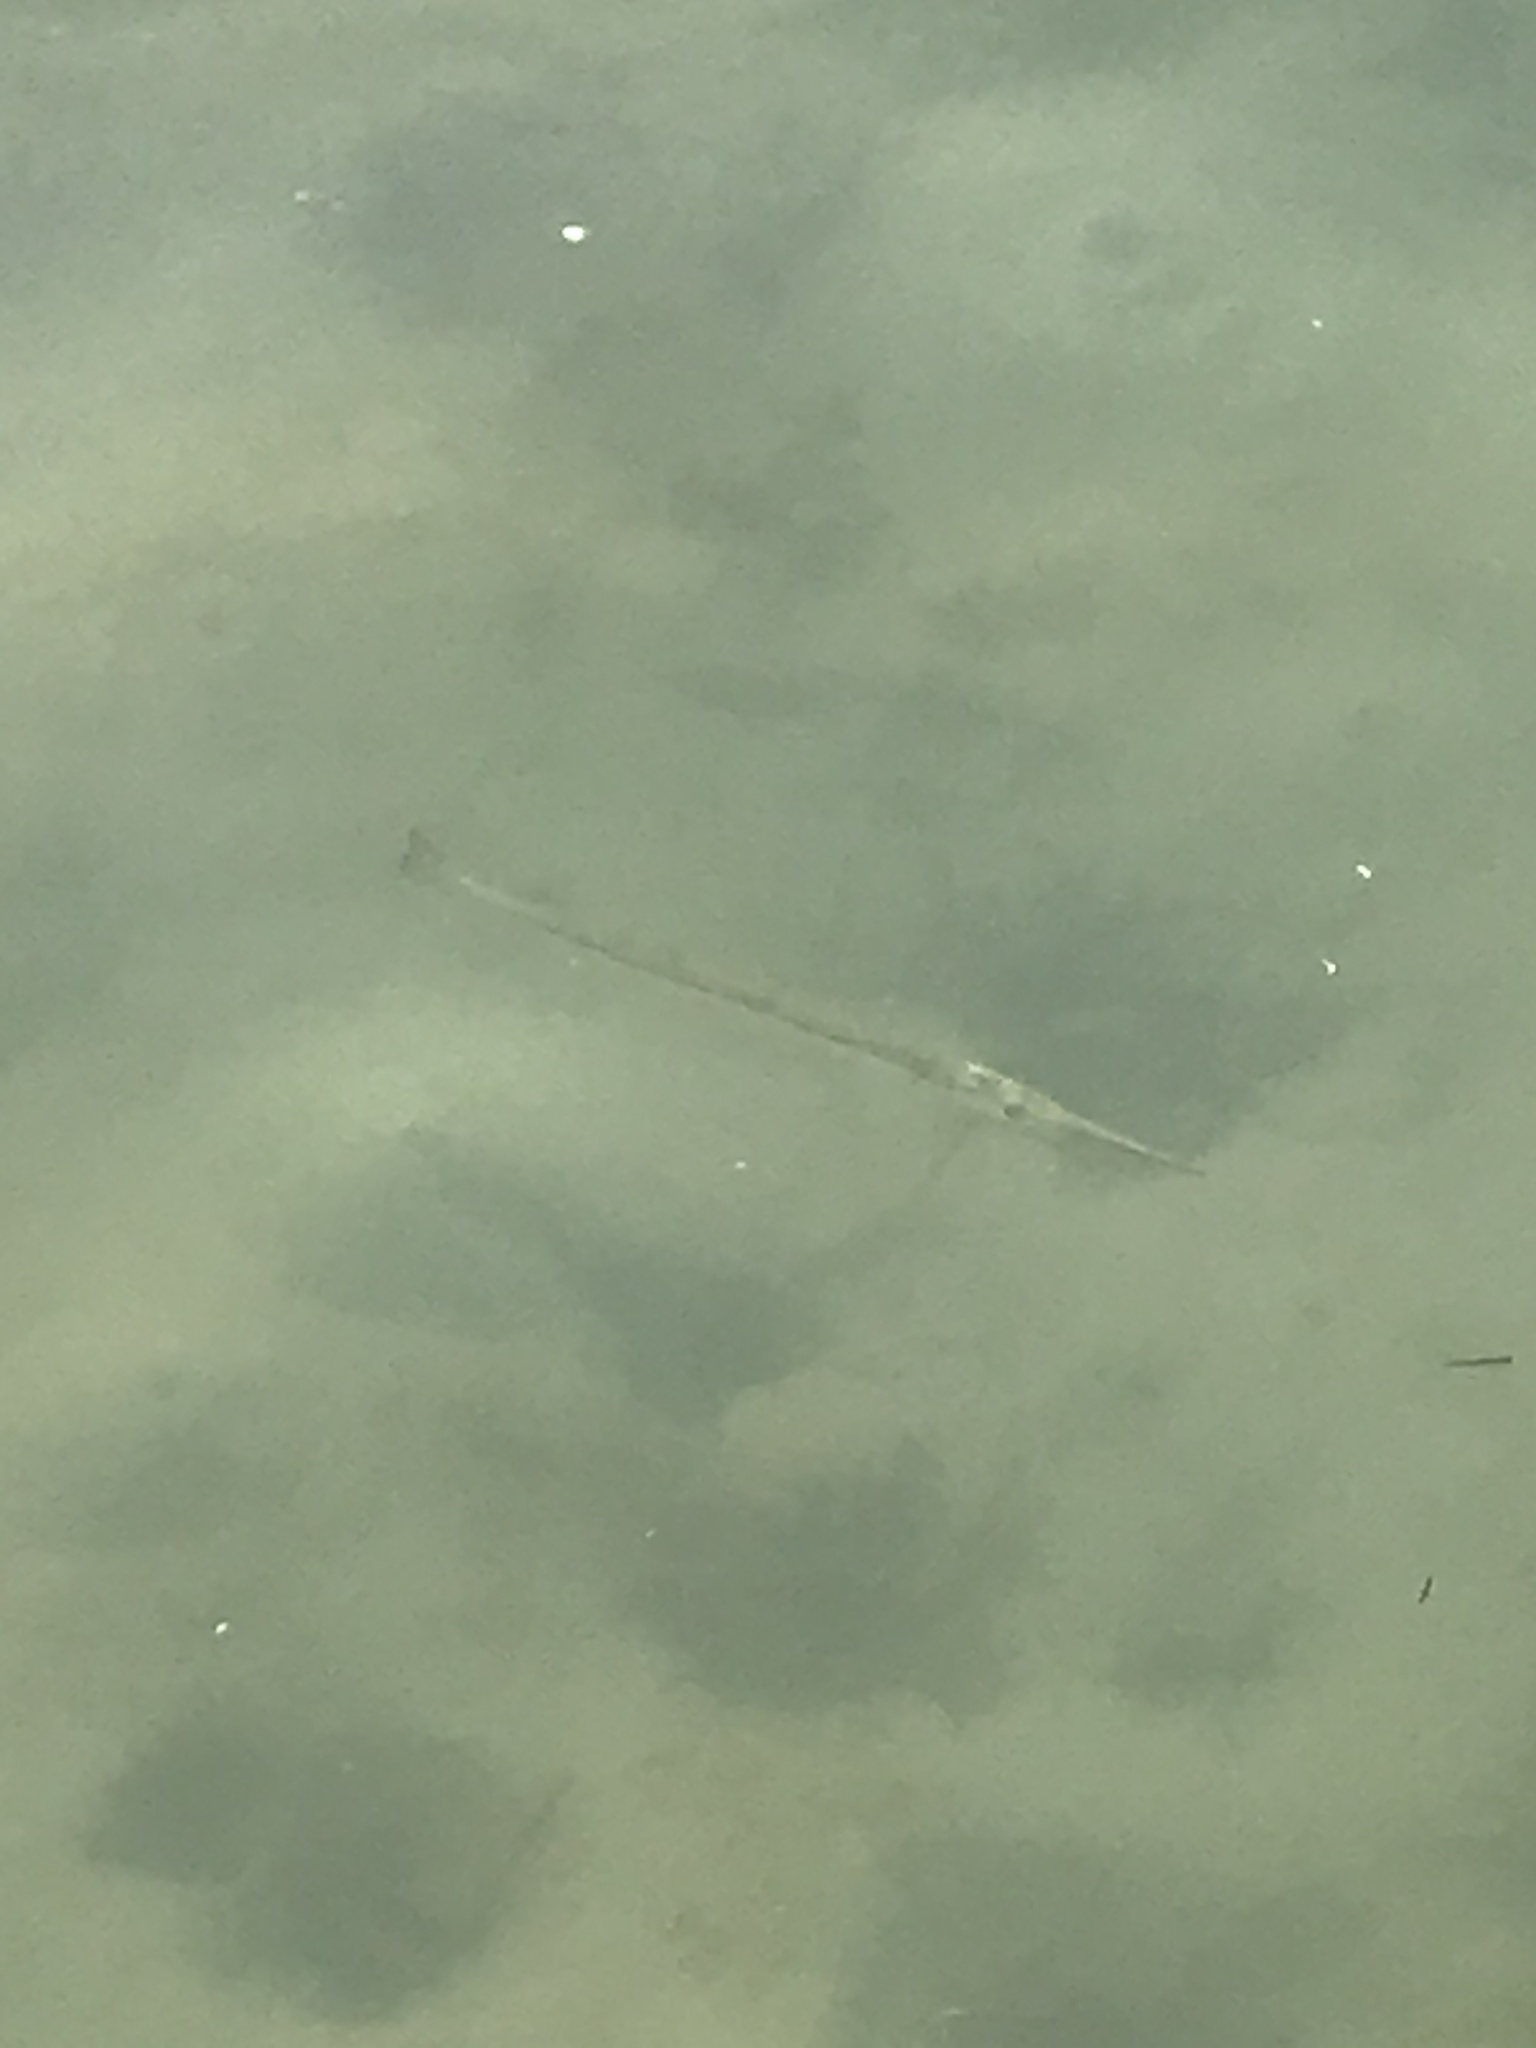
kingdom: Animalia
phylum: Chordata
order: Beloniformes
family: Belonidae
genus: Strongylura
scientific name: Strongylura marina
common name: Atlantic needlefish
